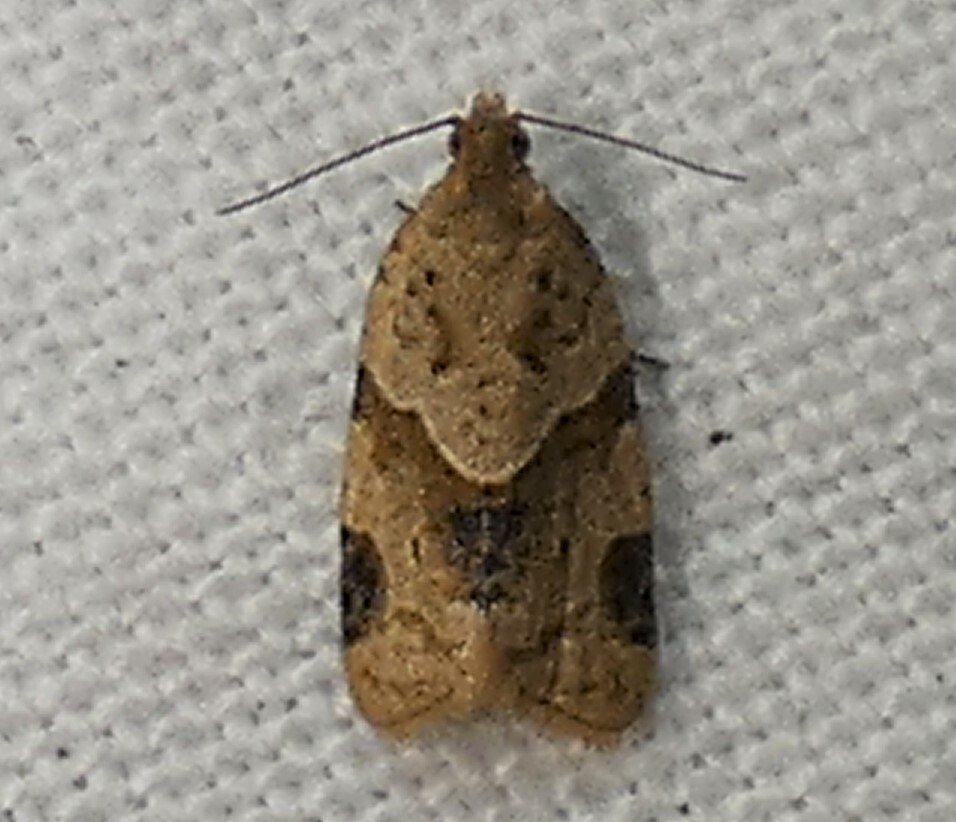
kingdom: Animalia
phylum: Arthropoda
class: Insecta
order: Lepidoptera
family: Tortricidae
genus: Clepsis
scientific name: Clepsis peritana
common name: Garden tortrix
